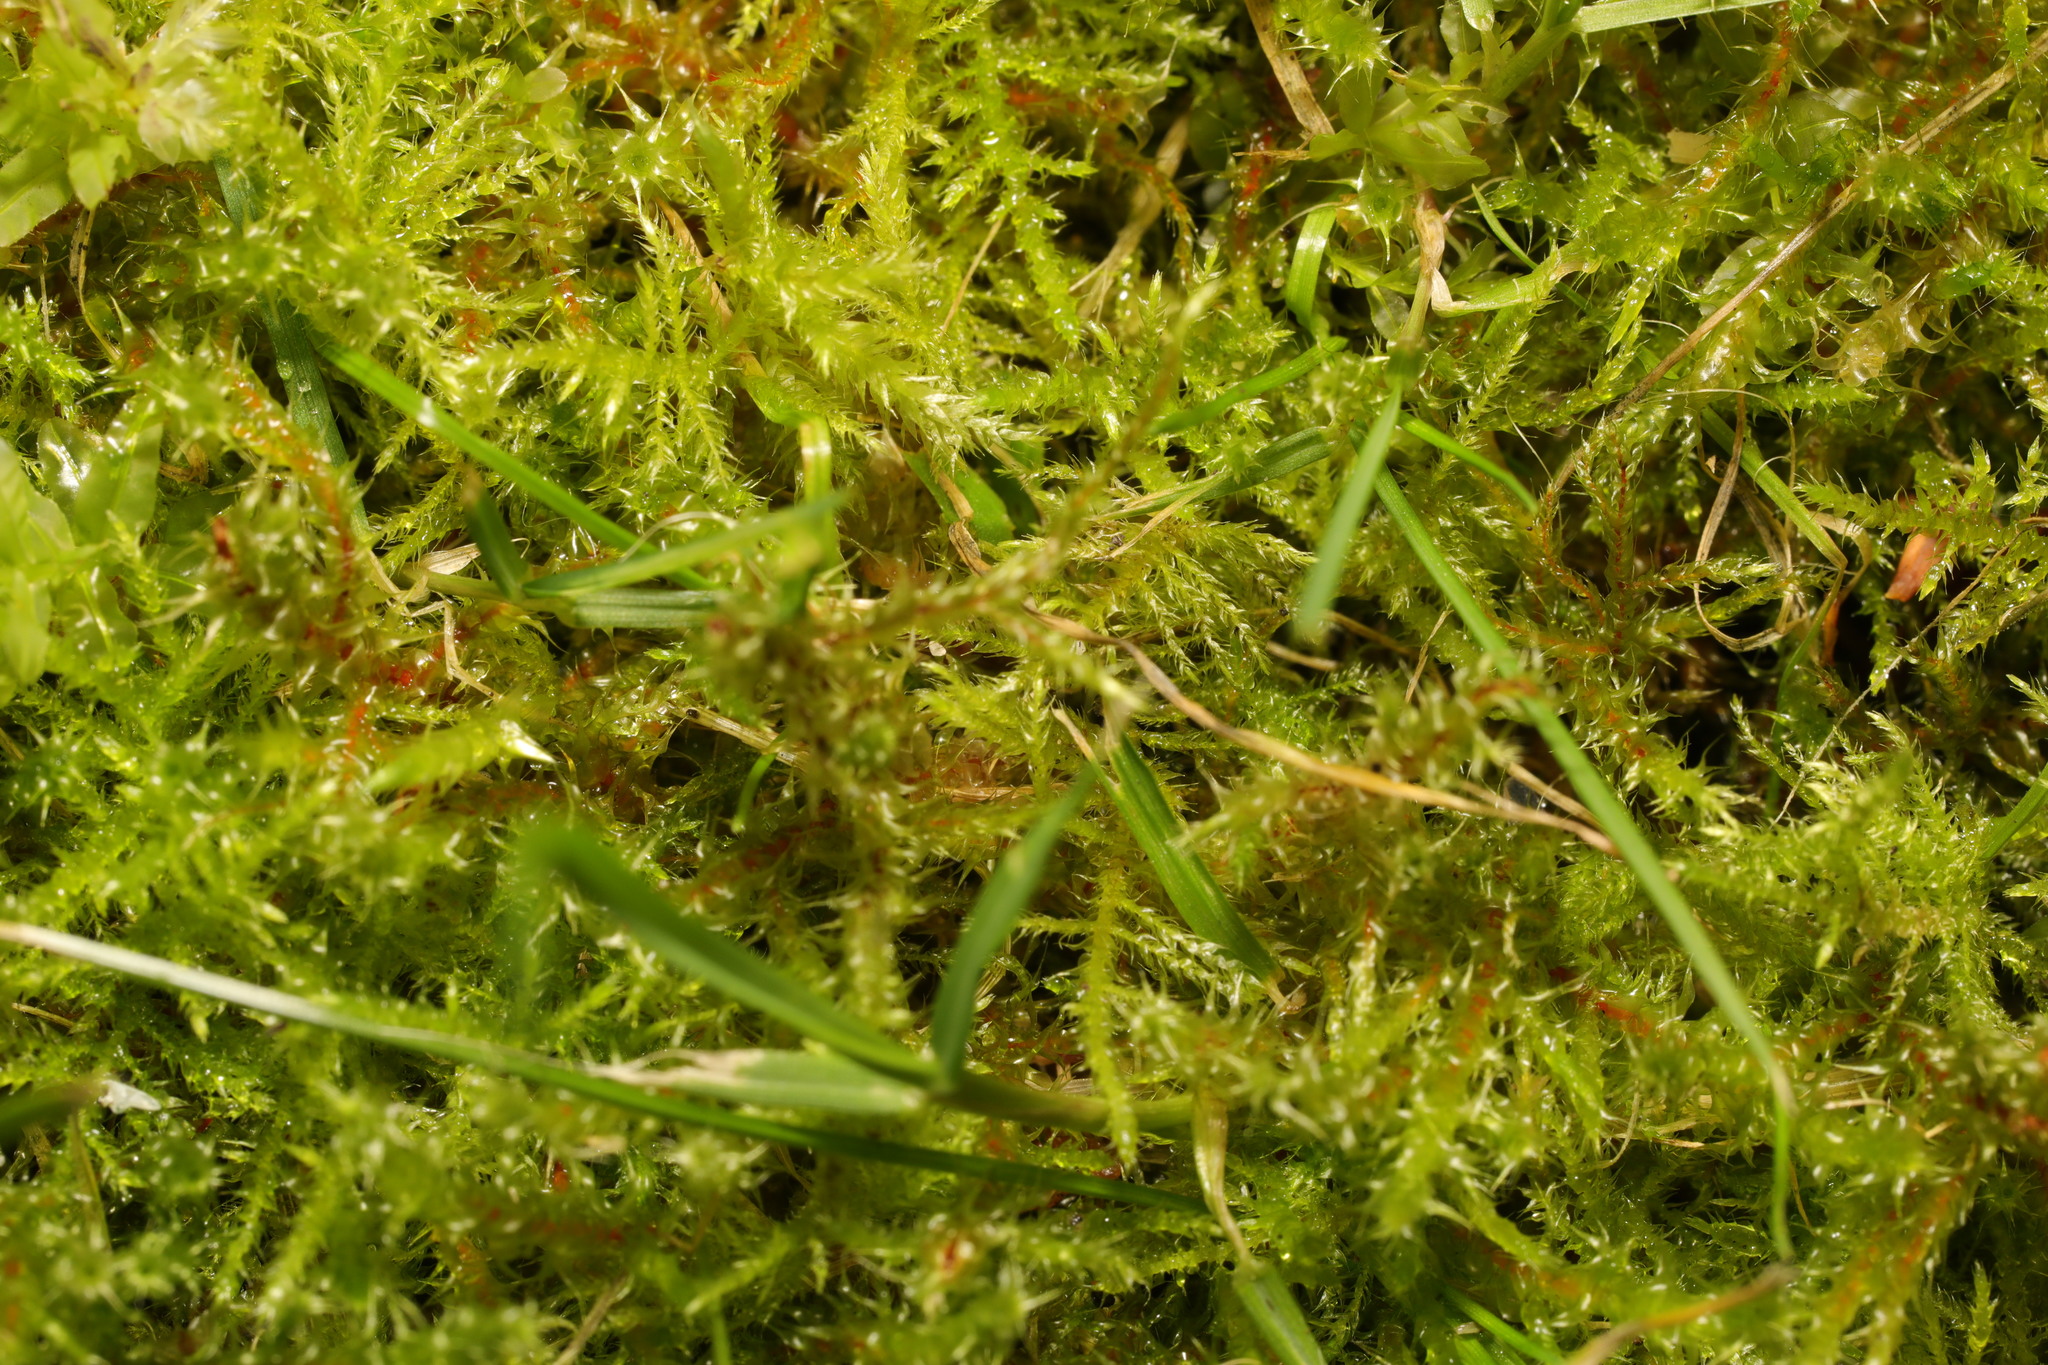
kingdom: Plantae
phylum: Bryophyta
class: Bryopsida
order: Hypnales
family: Hylocomiaceae
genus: Rhytidiadelphus
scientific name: Rhytidiadelphus squarrosus
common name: Springy turf-moss
